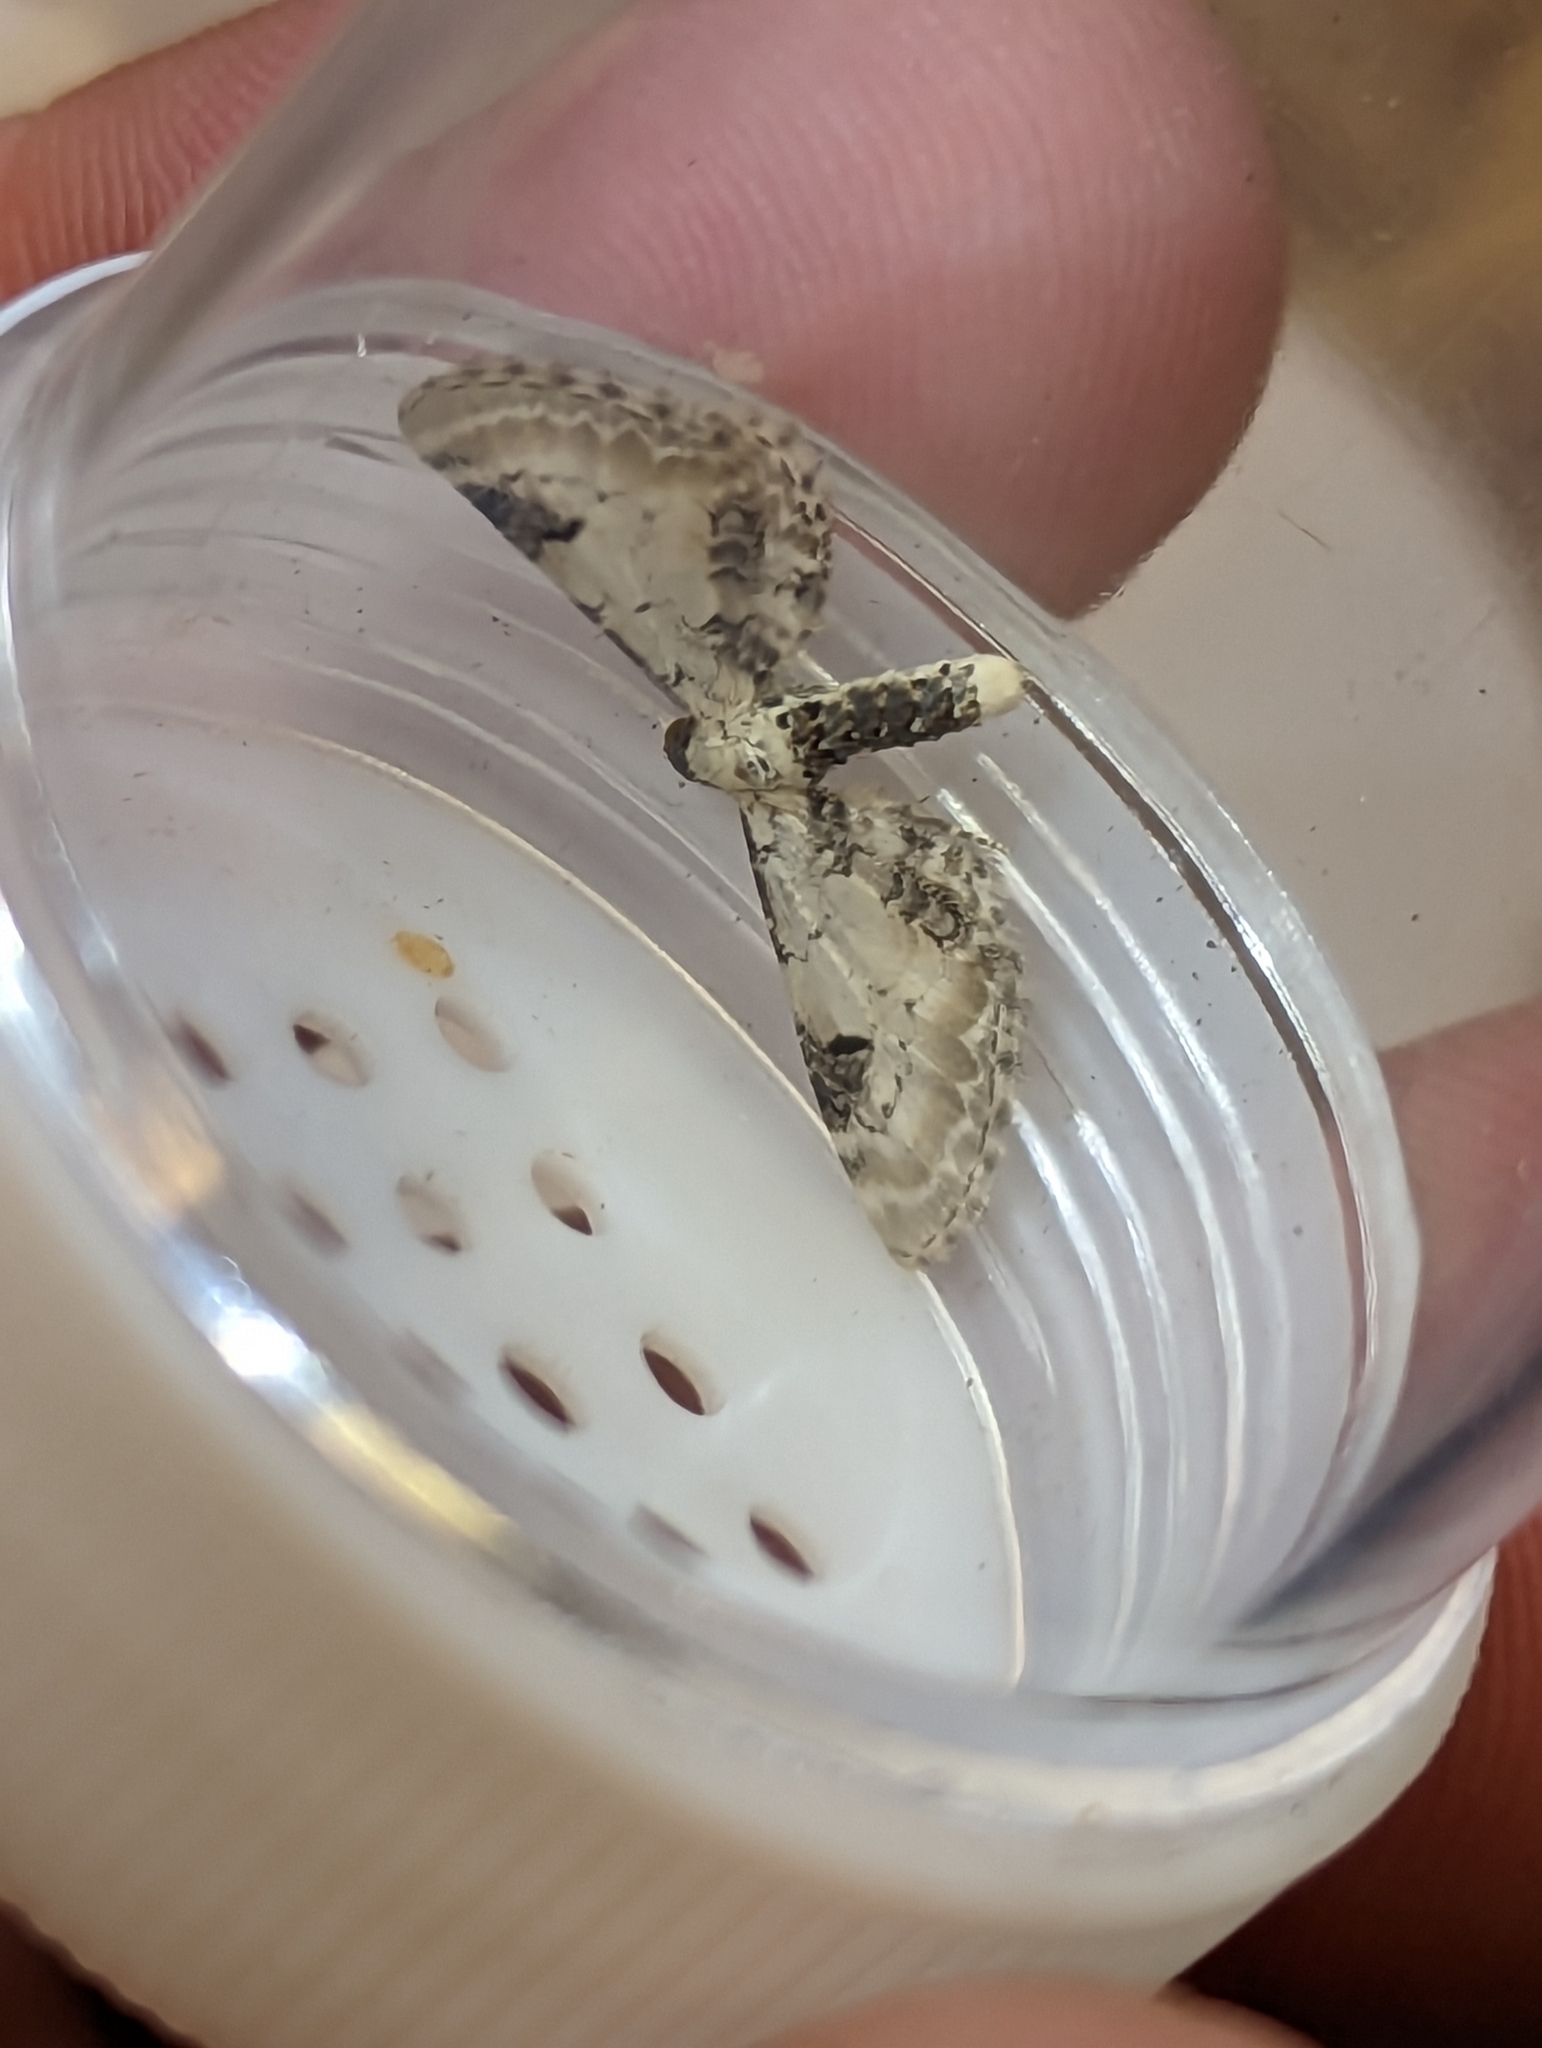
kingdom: Animalia
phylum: Arthropoda
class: Insecta
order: Lepidoptera
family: Geometridae
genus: Eupithecia
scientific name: Eupithecia centaureata
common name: Lime-speck pug
